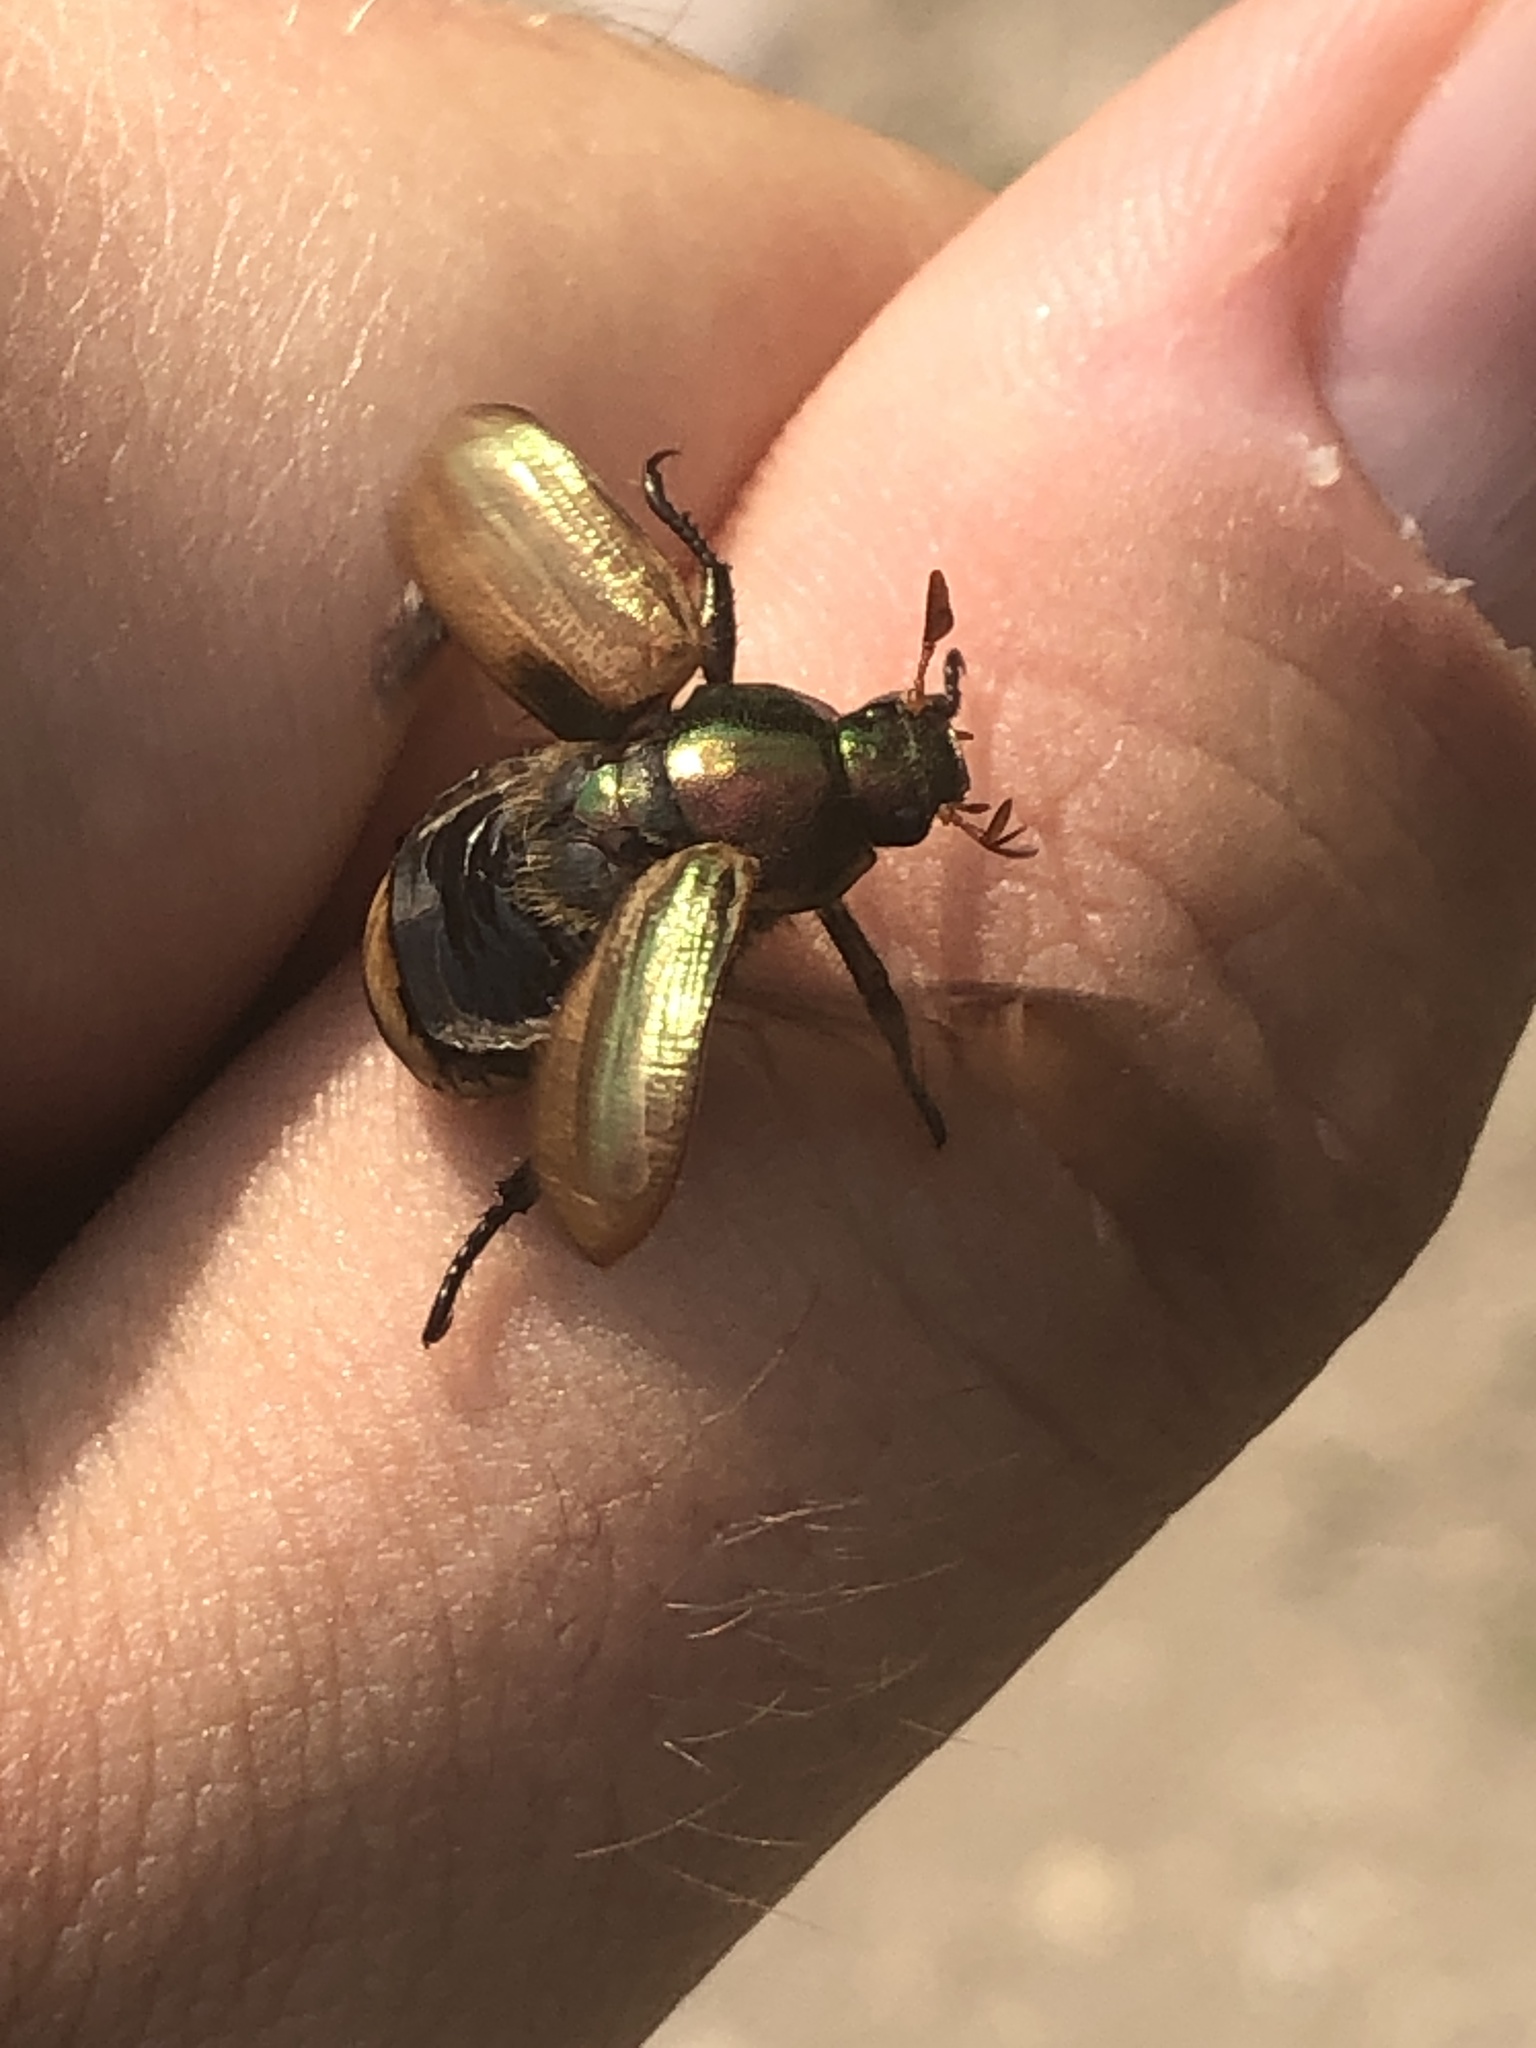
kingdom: Animalia
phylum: Arthropoda
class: Insecta
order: Coleoptera
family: Scarabaeidae
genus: Mimela
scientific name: Mimela junii
